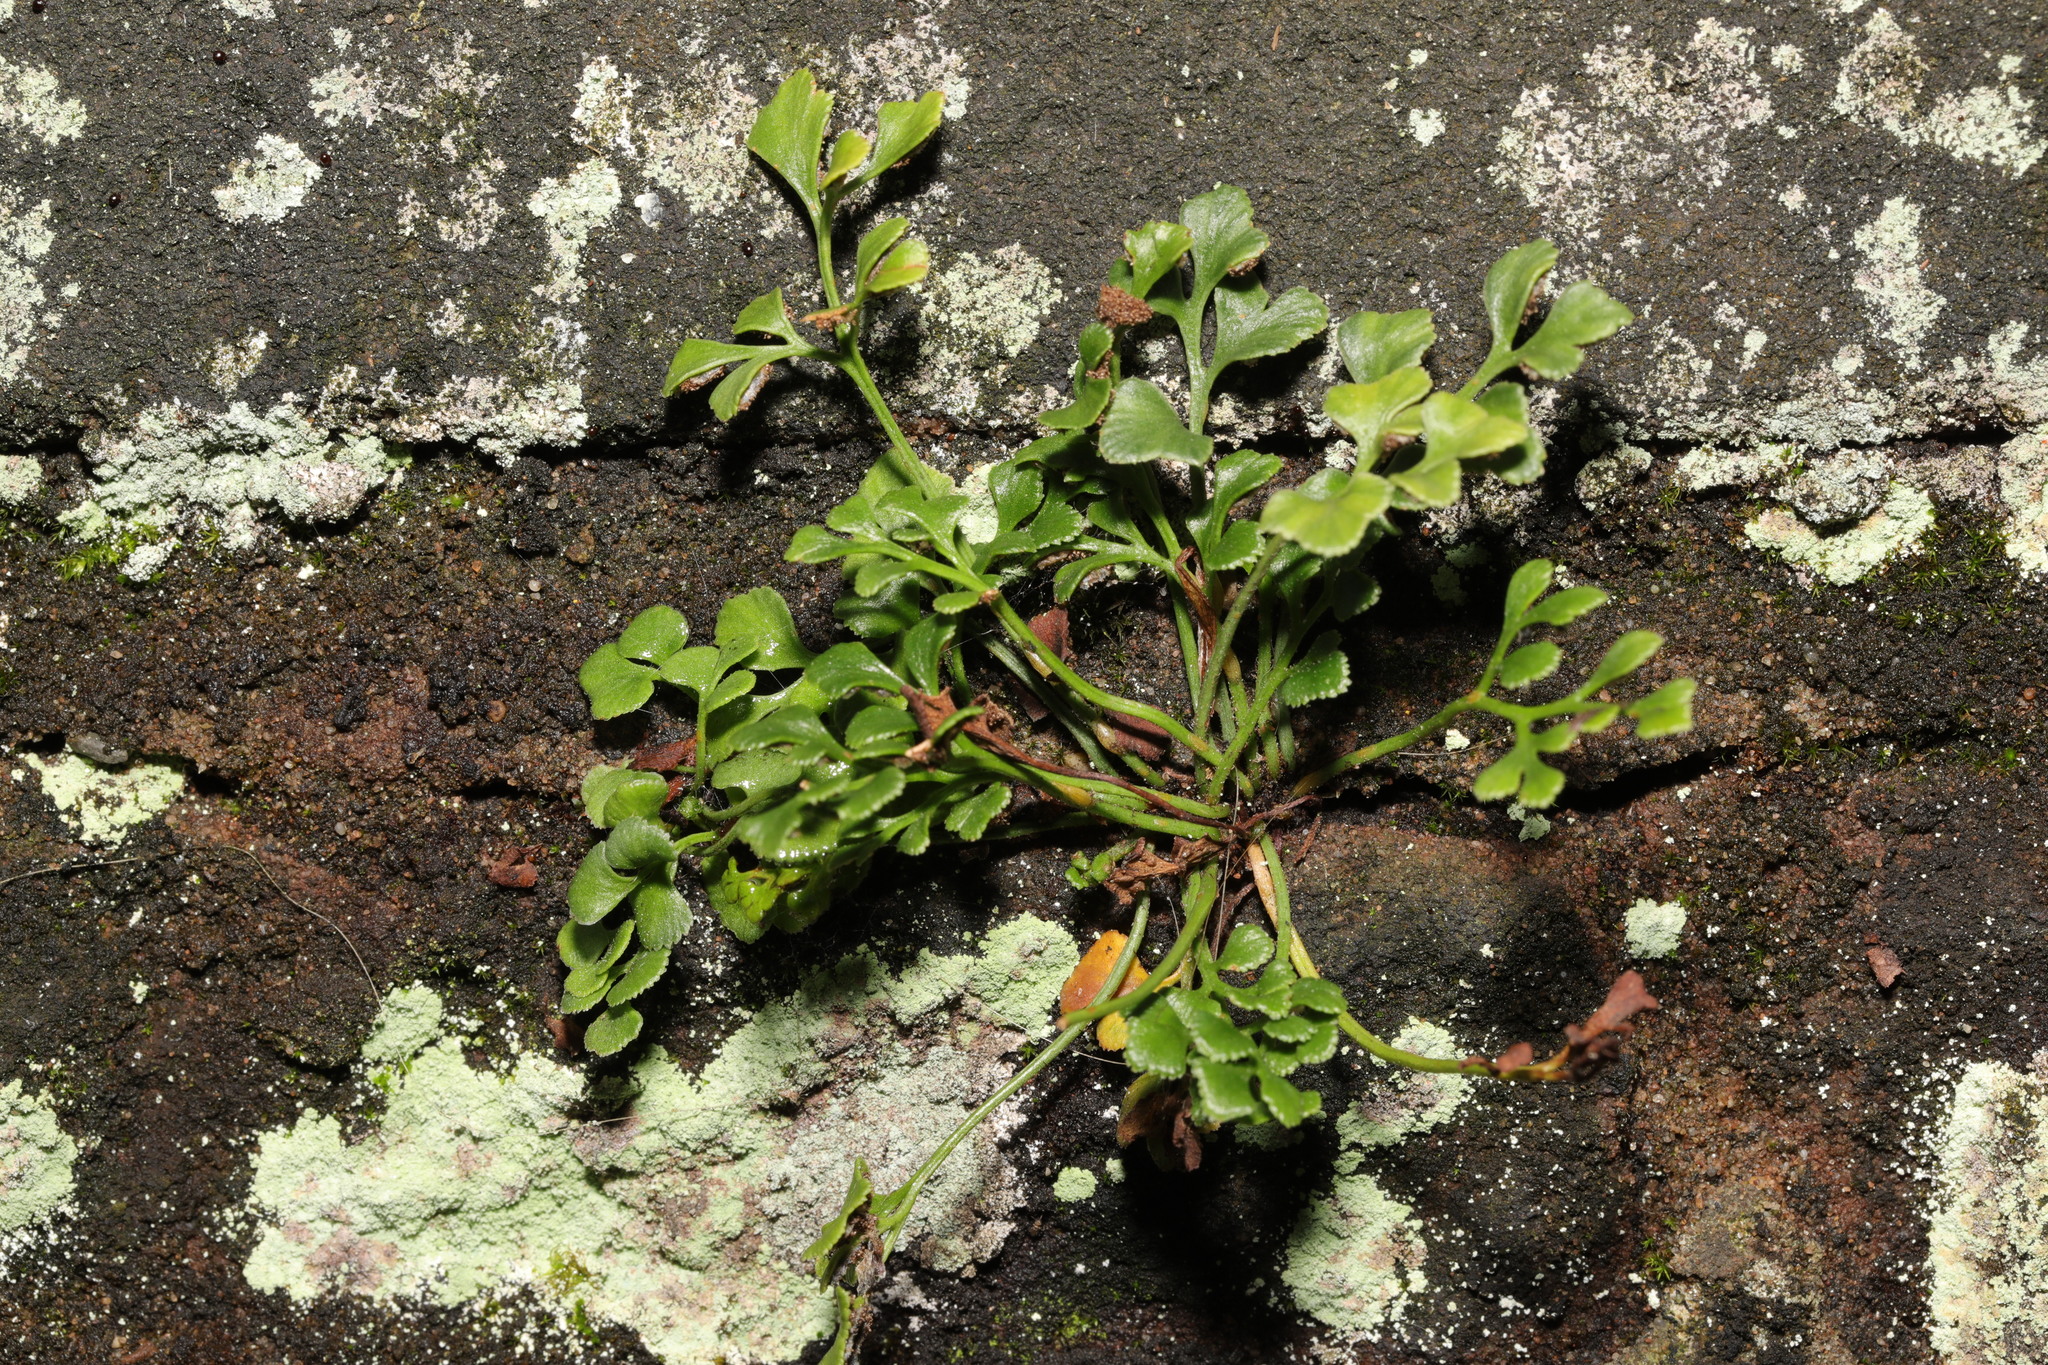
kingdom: Plantae
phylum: Tracheophyta
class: Polypodiopsida
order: Polypodiales
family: Aspleniaceae
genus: Asplenium
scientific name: Asplenium ruta-muraria
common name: Wall-rue
